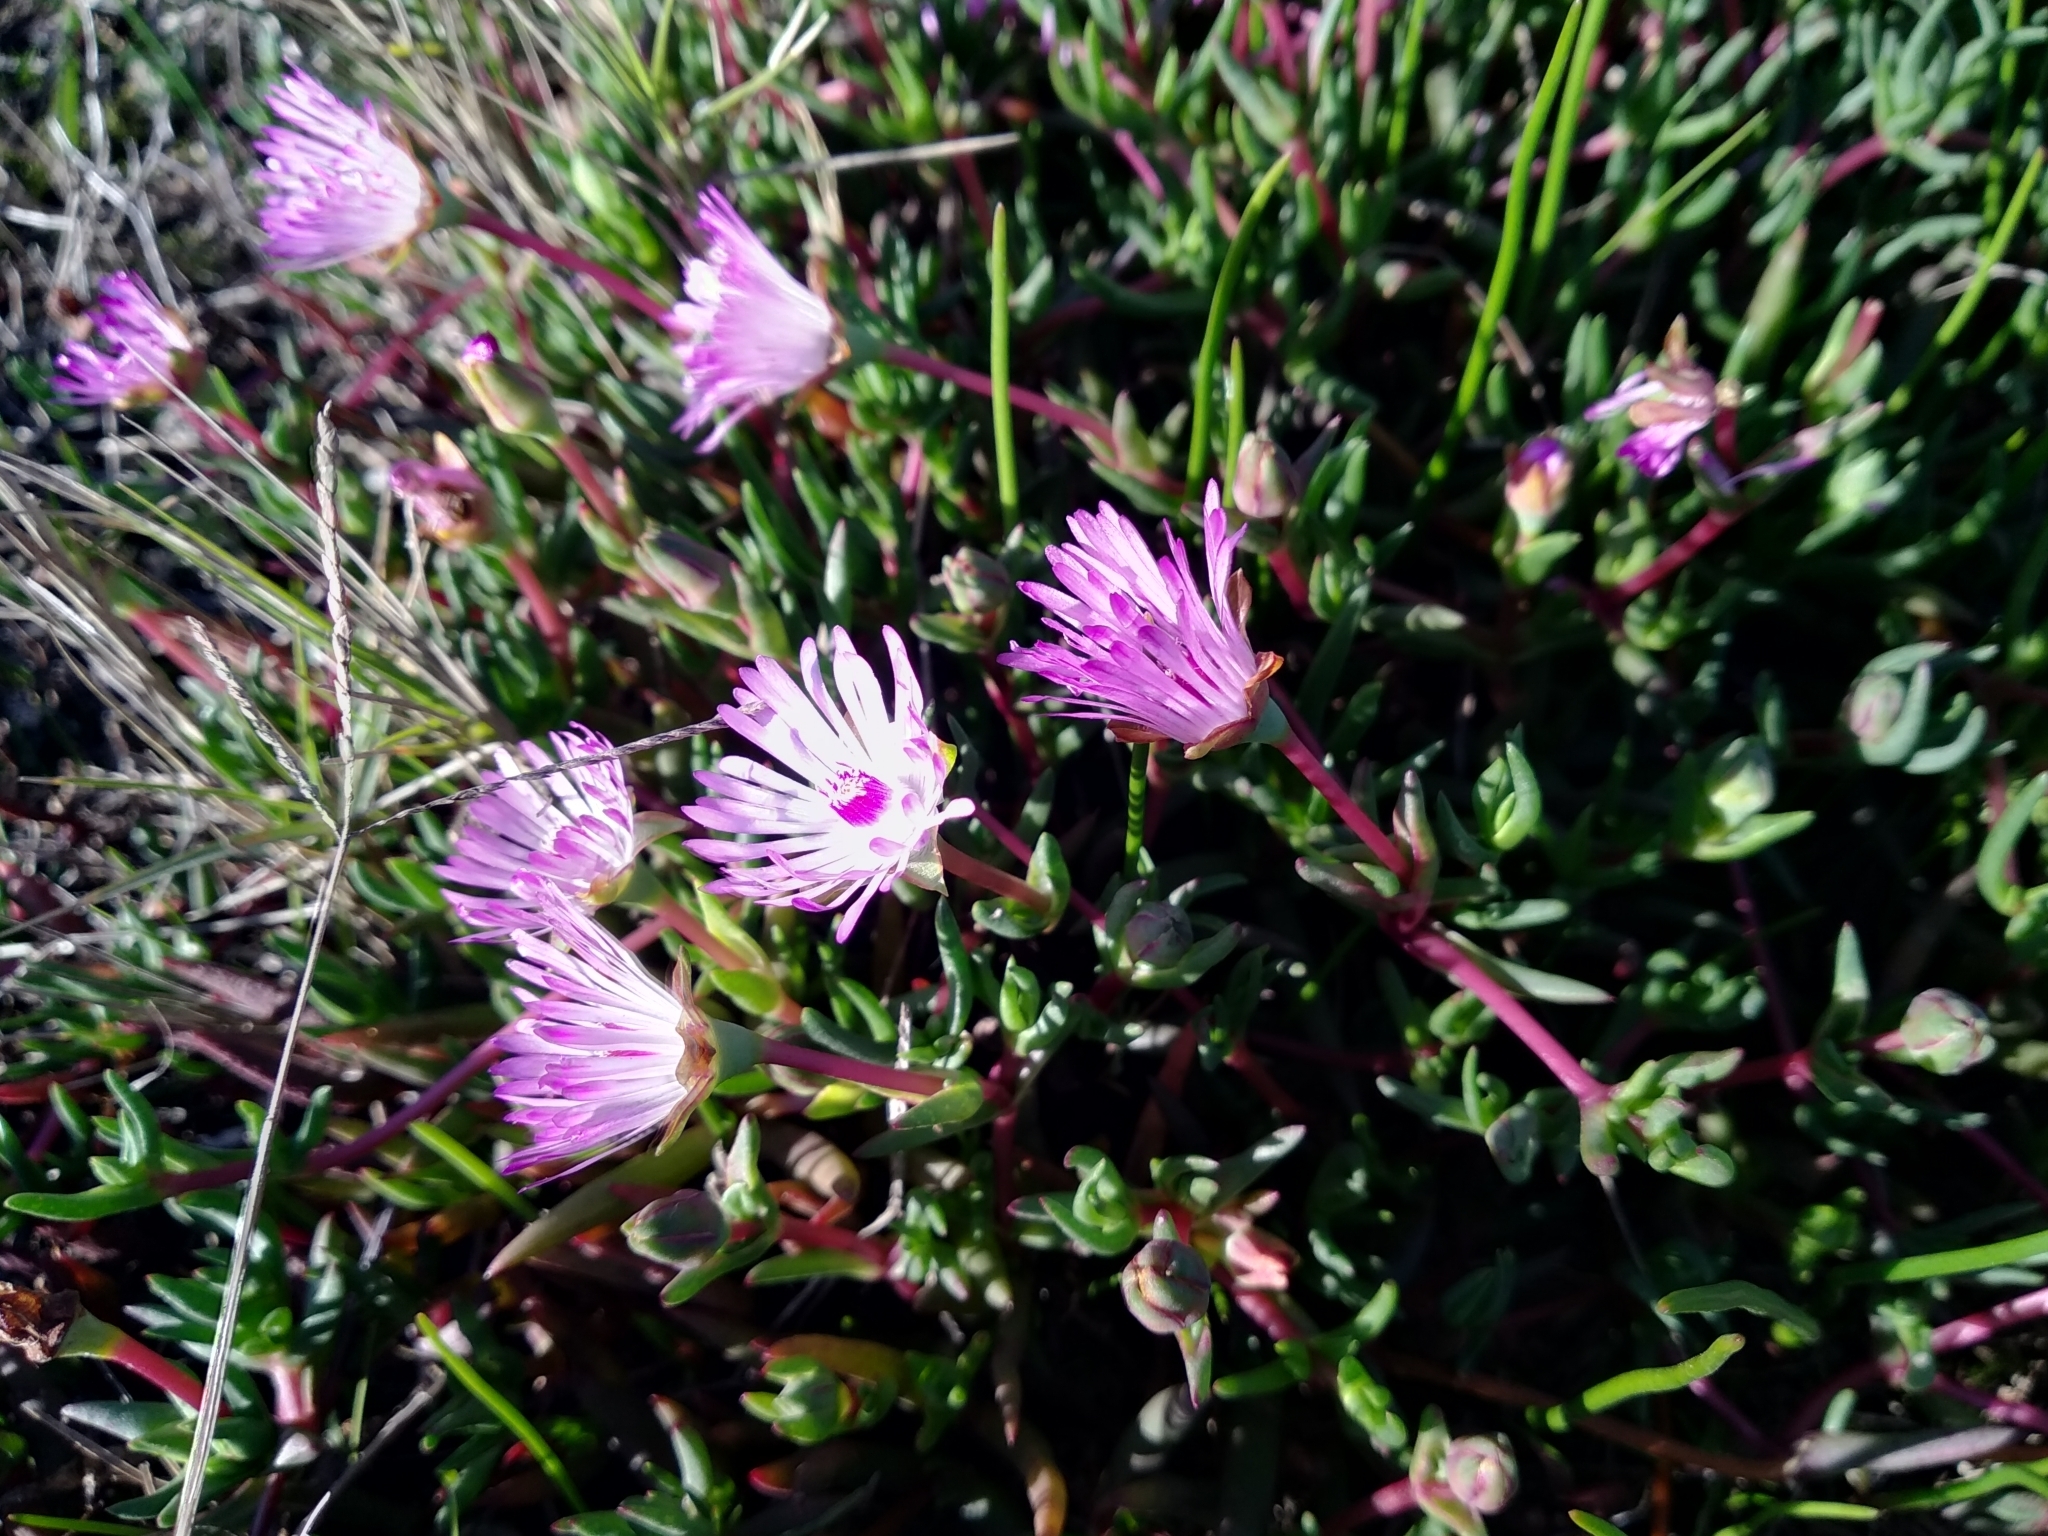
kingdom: Plantae
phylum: Tracheophyta
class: Magnoliopsida
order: Caryophyllales
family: Aizoaceae
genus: Lampranthus
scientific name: Lampranthus filicaulis
